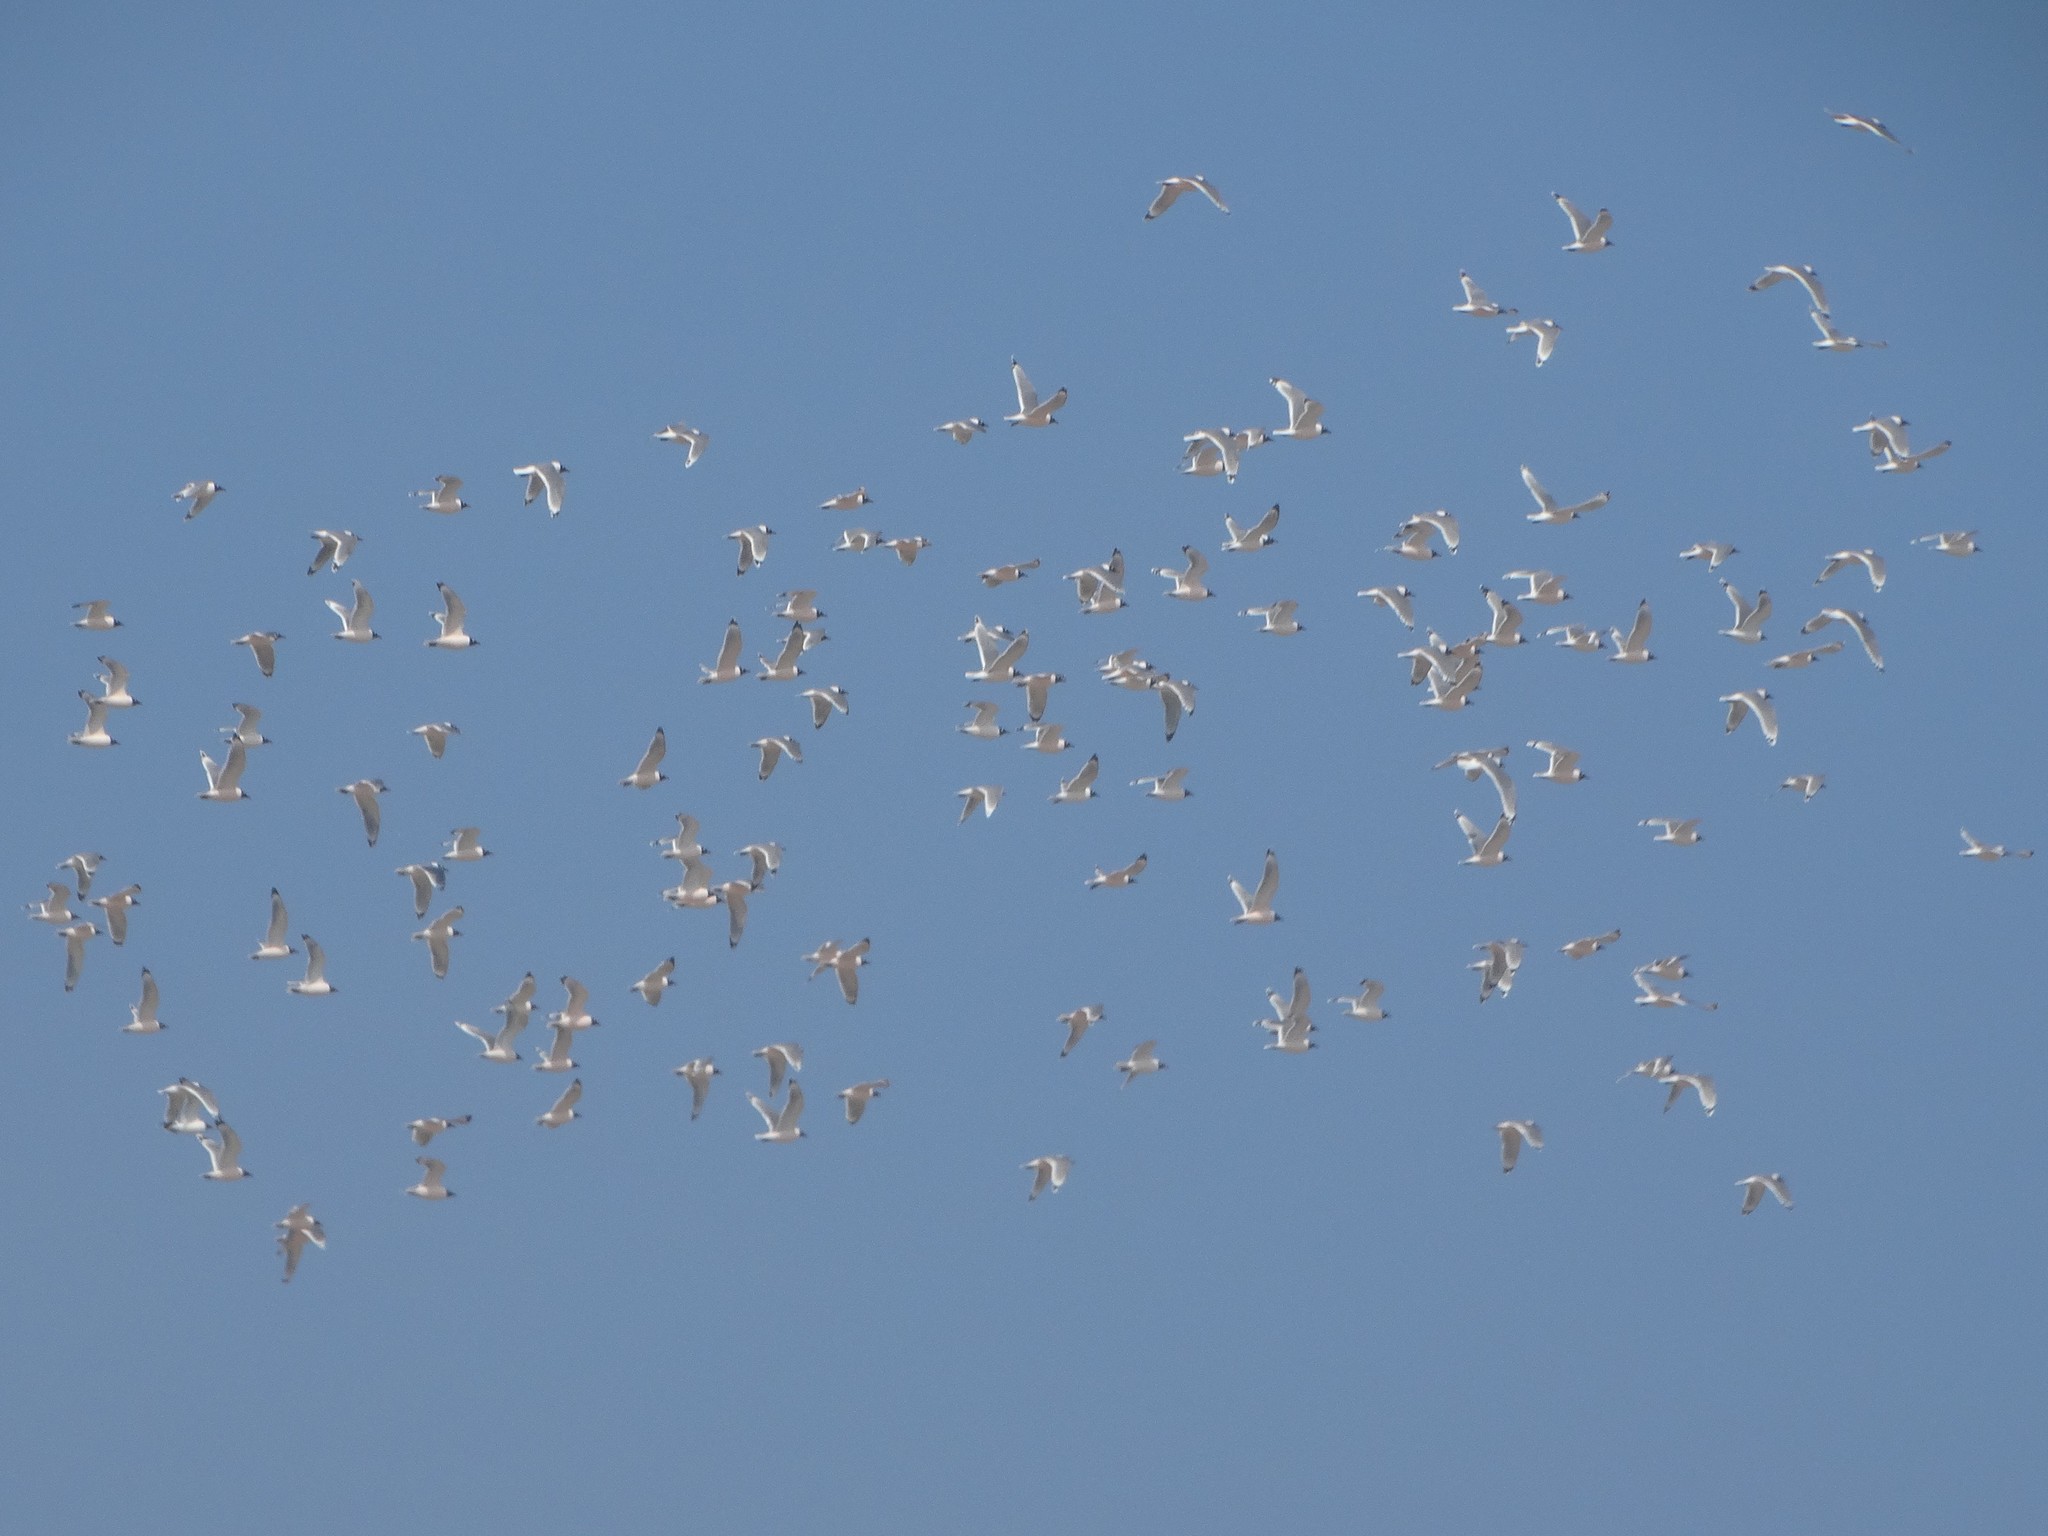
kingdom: Animalia
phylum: Chordata
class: Aves
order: Charadriiformes
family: Laridae
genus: Leucophaeus
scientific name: Leucophaeus pipixcan
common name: Franklin's gull
